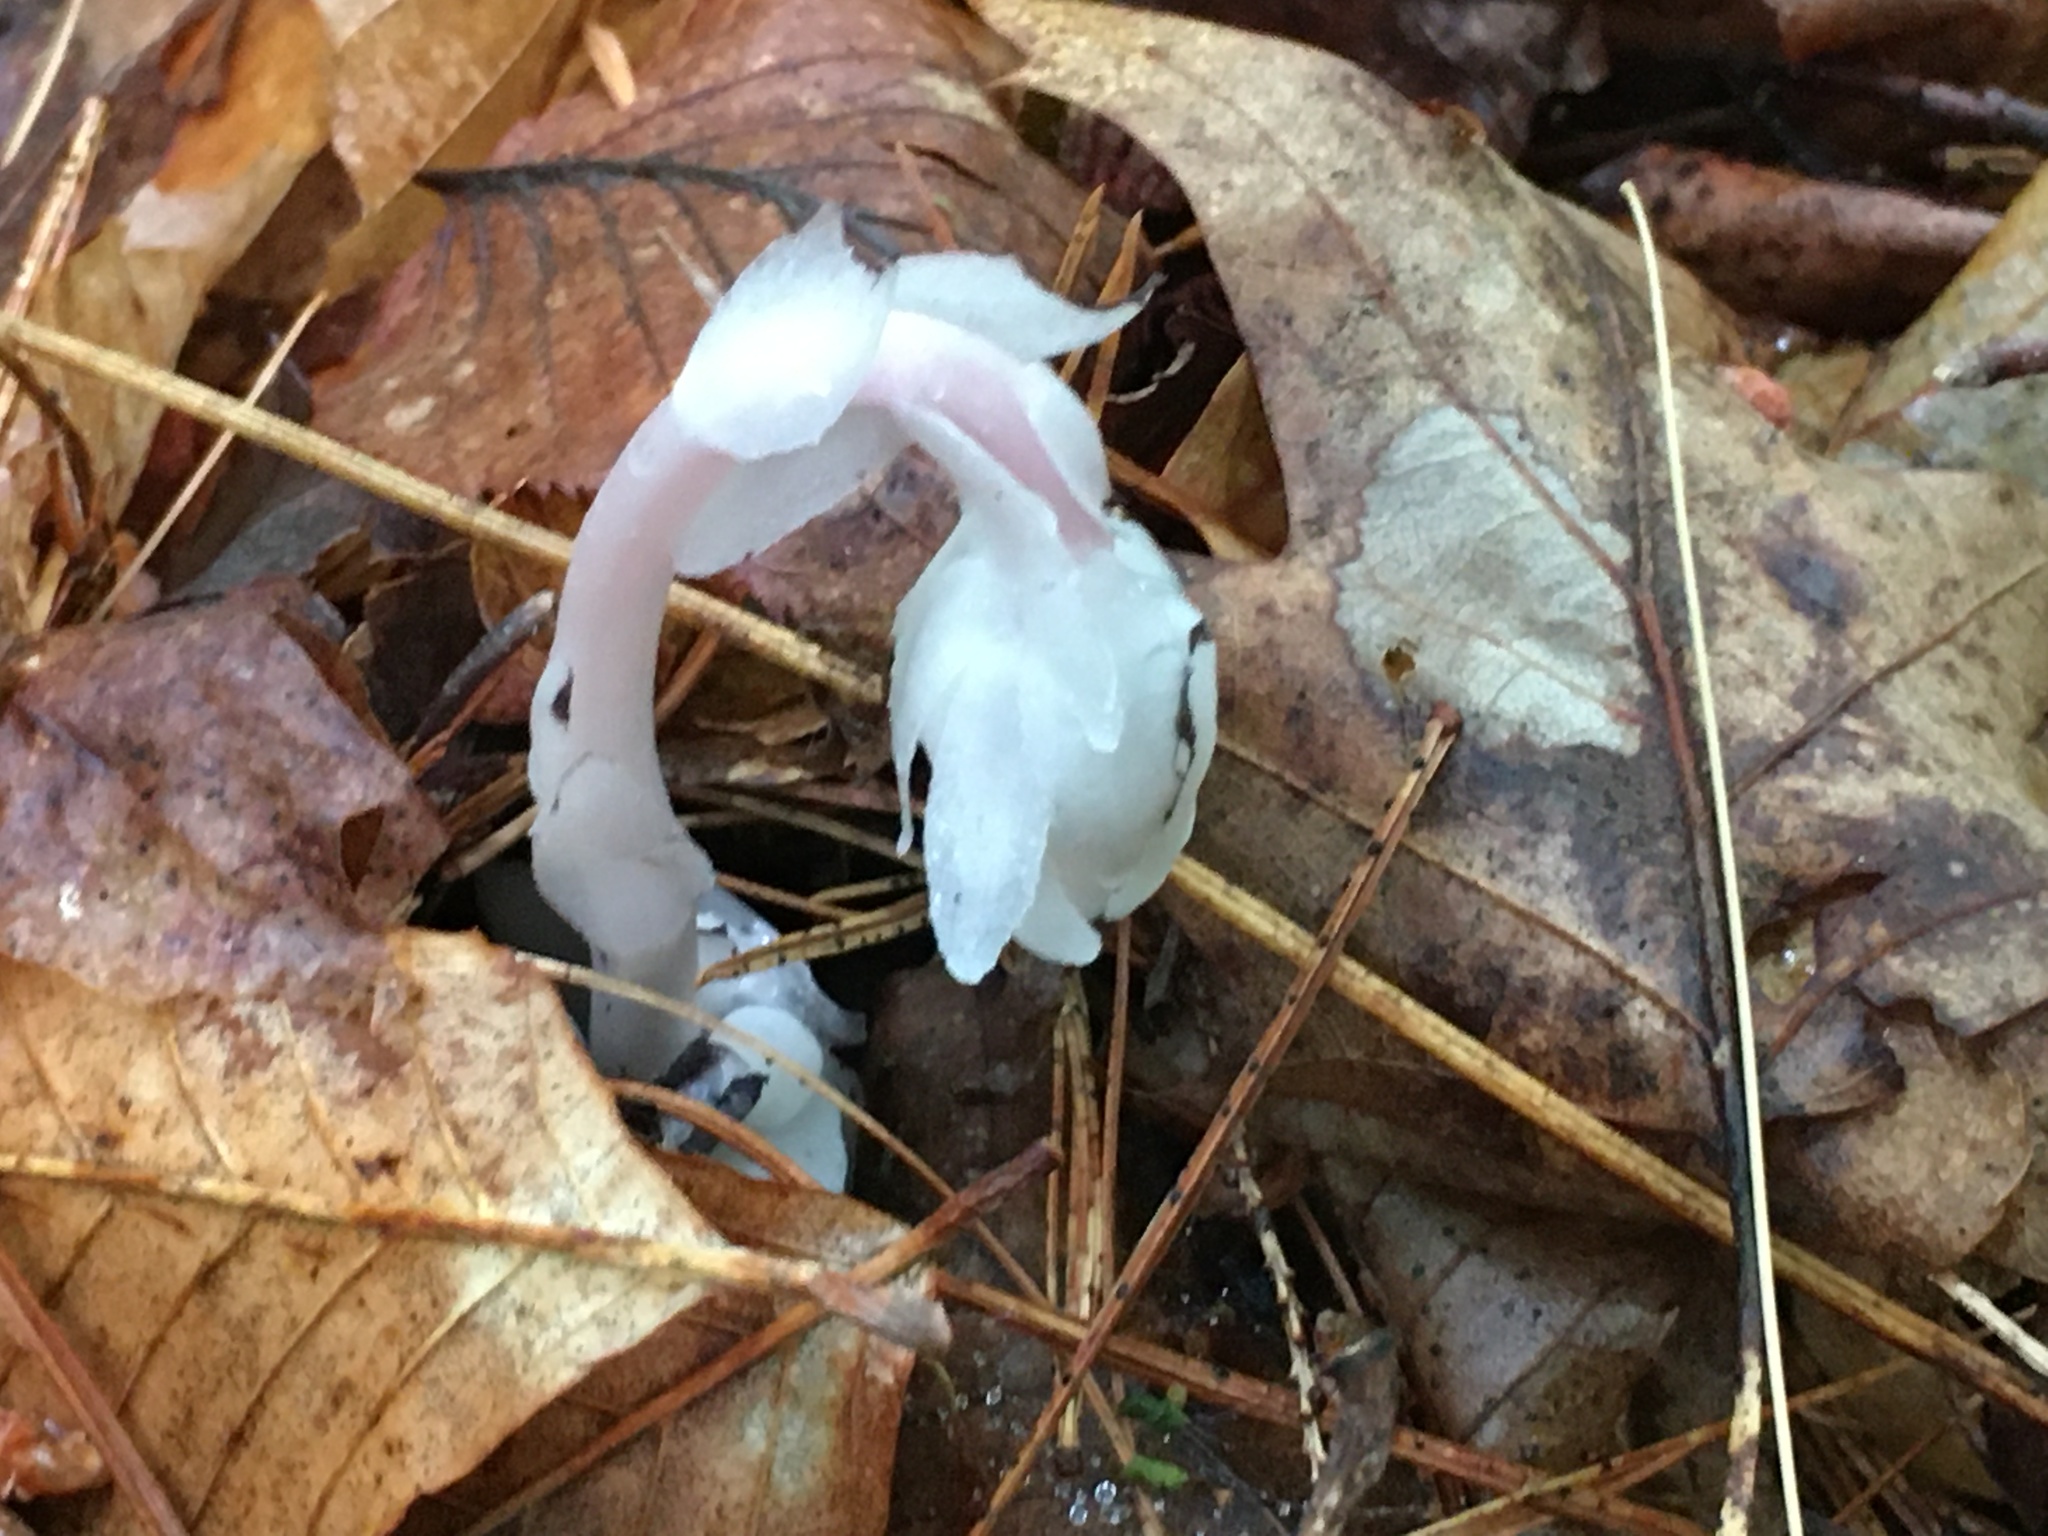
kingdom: Plantae
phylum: Tracheophyta
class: Magnoliopsida
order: Ericales
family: Ericaceae
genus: Monotropa
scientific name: Monotropa uniflora
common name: Convulsion root
